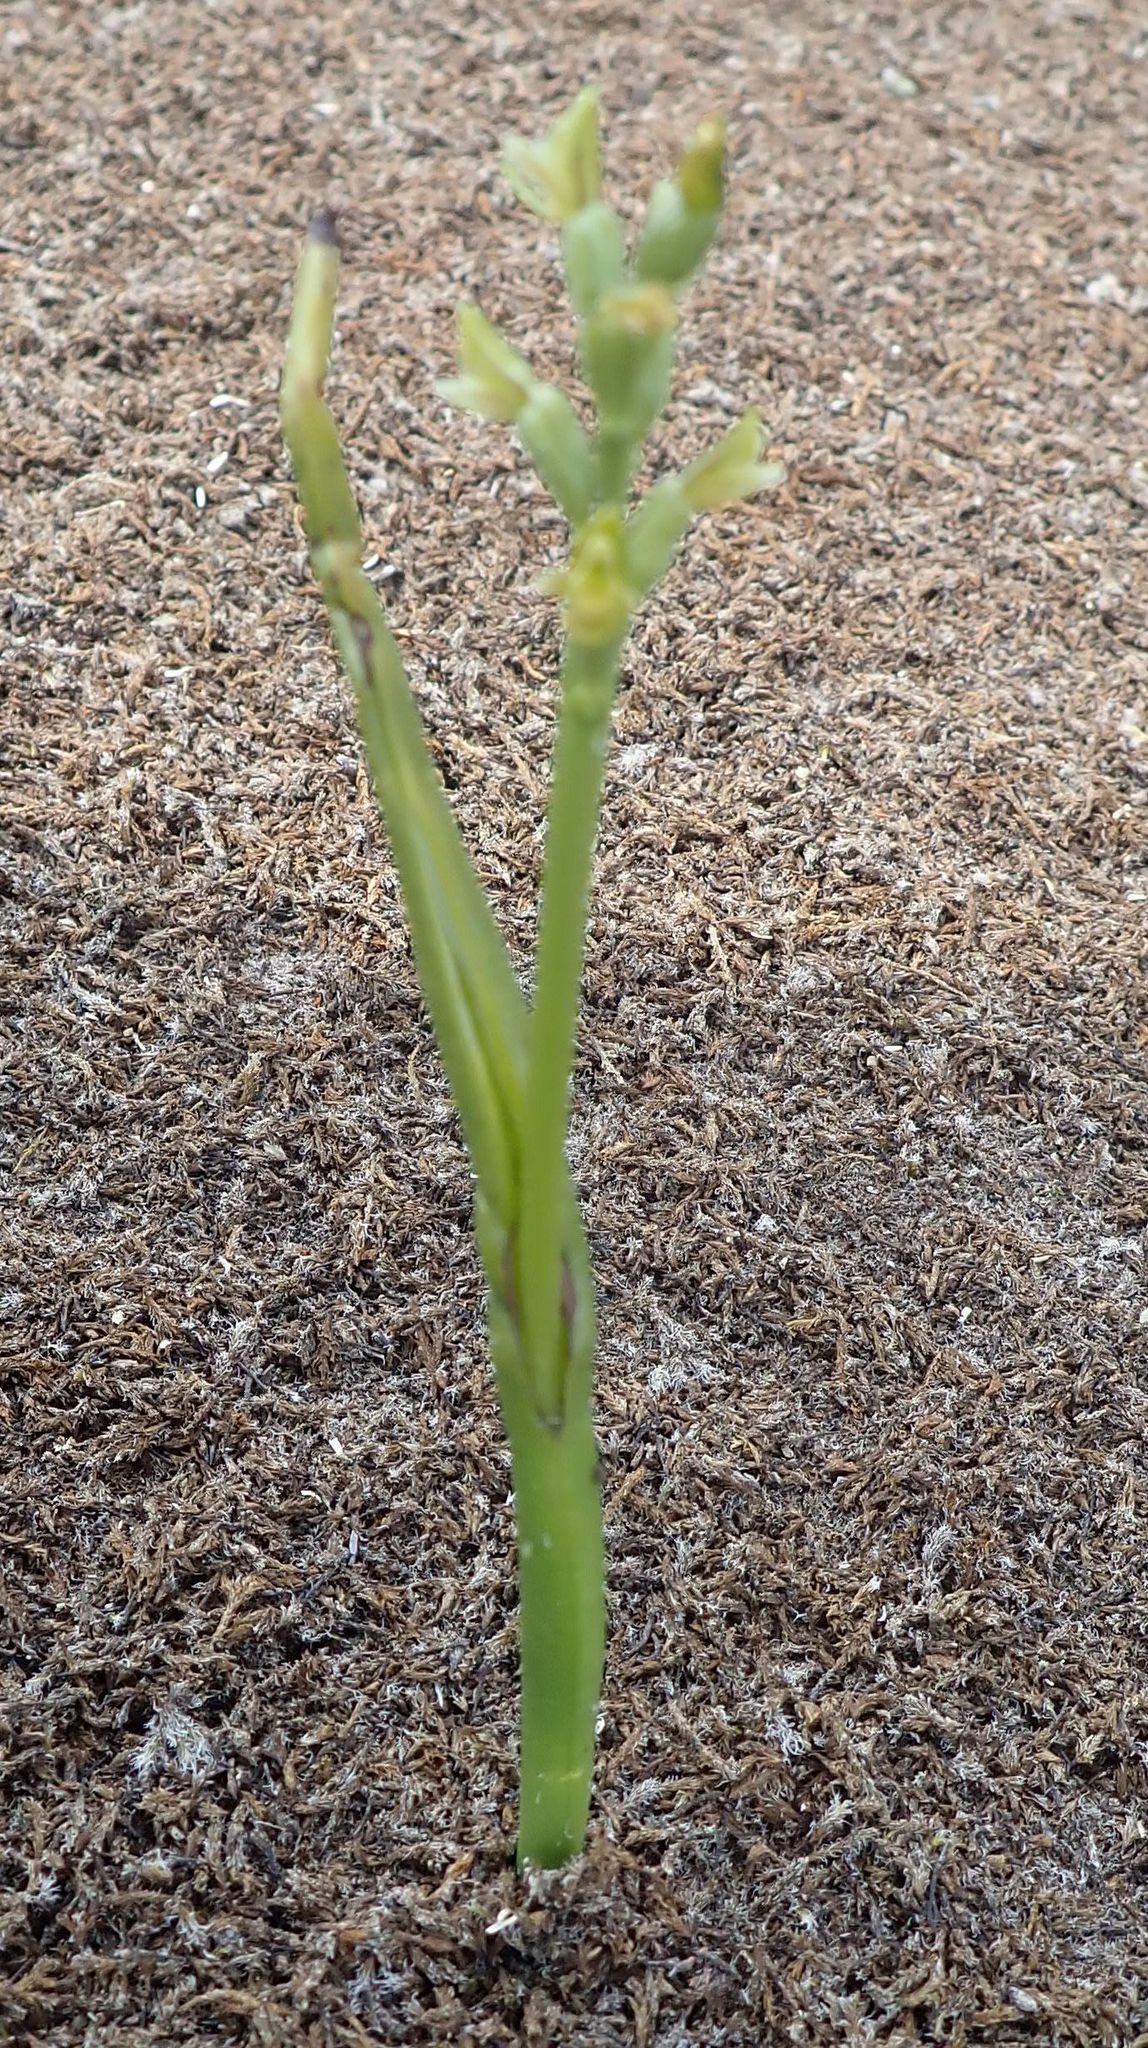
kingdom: Plantae
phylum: Tracheophyta
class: Liliopsida
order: Asparagales
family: Orchidaceae
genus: Prasophyllum
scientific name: Prasophyllum colensoi
